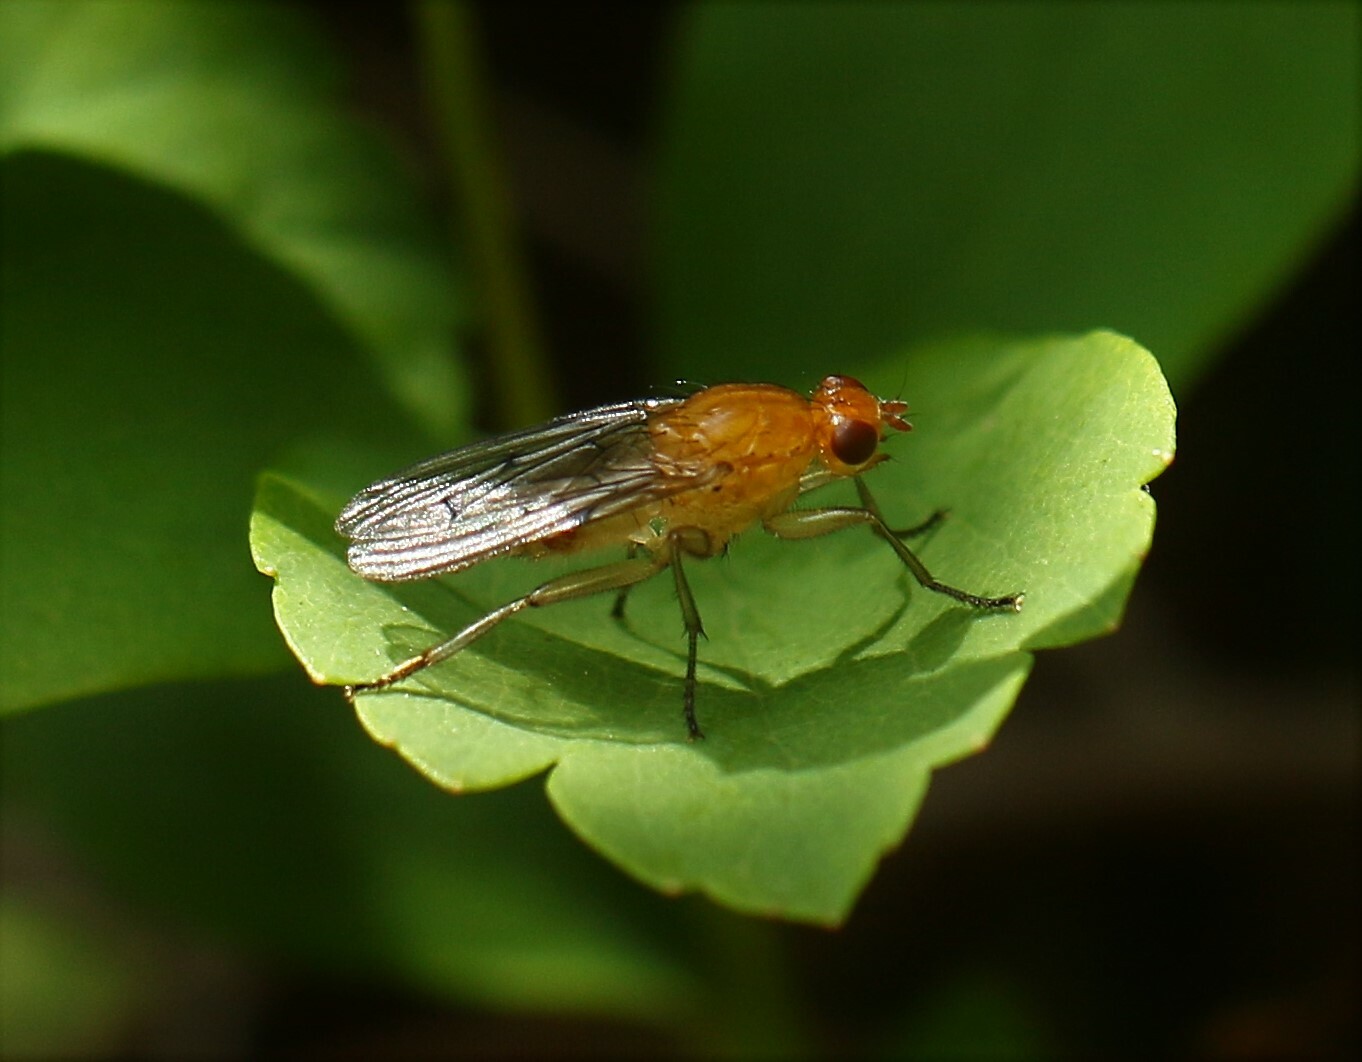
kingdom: Animalia
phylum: Arthropoda
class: Insecta
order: Diptera
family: Dryomyzidae
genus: Dryomyza
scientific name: Dryomyza anilis
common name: Marsh fly
